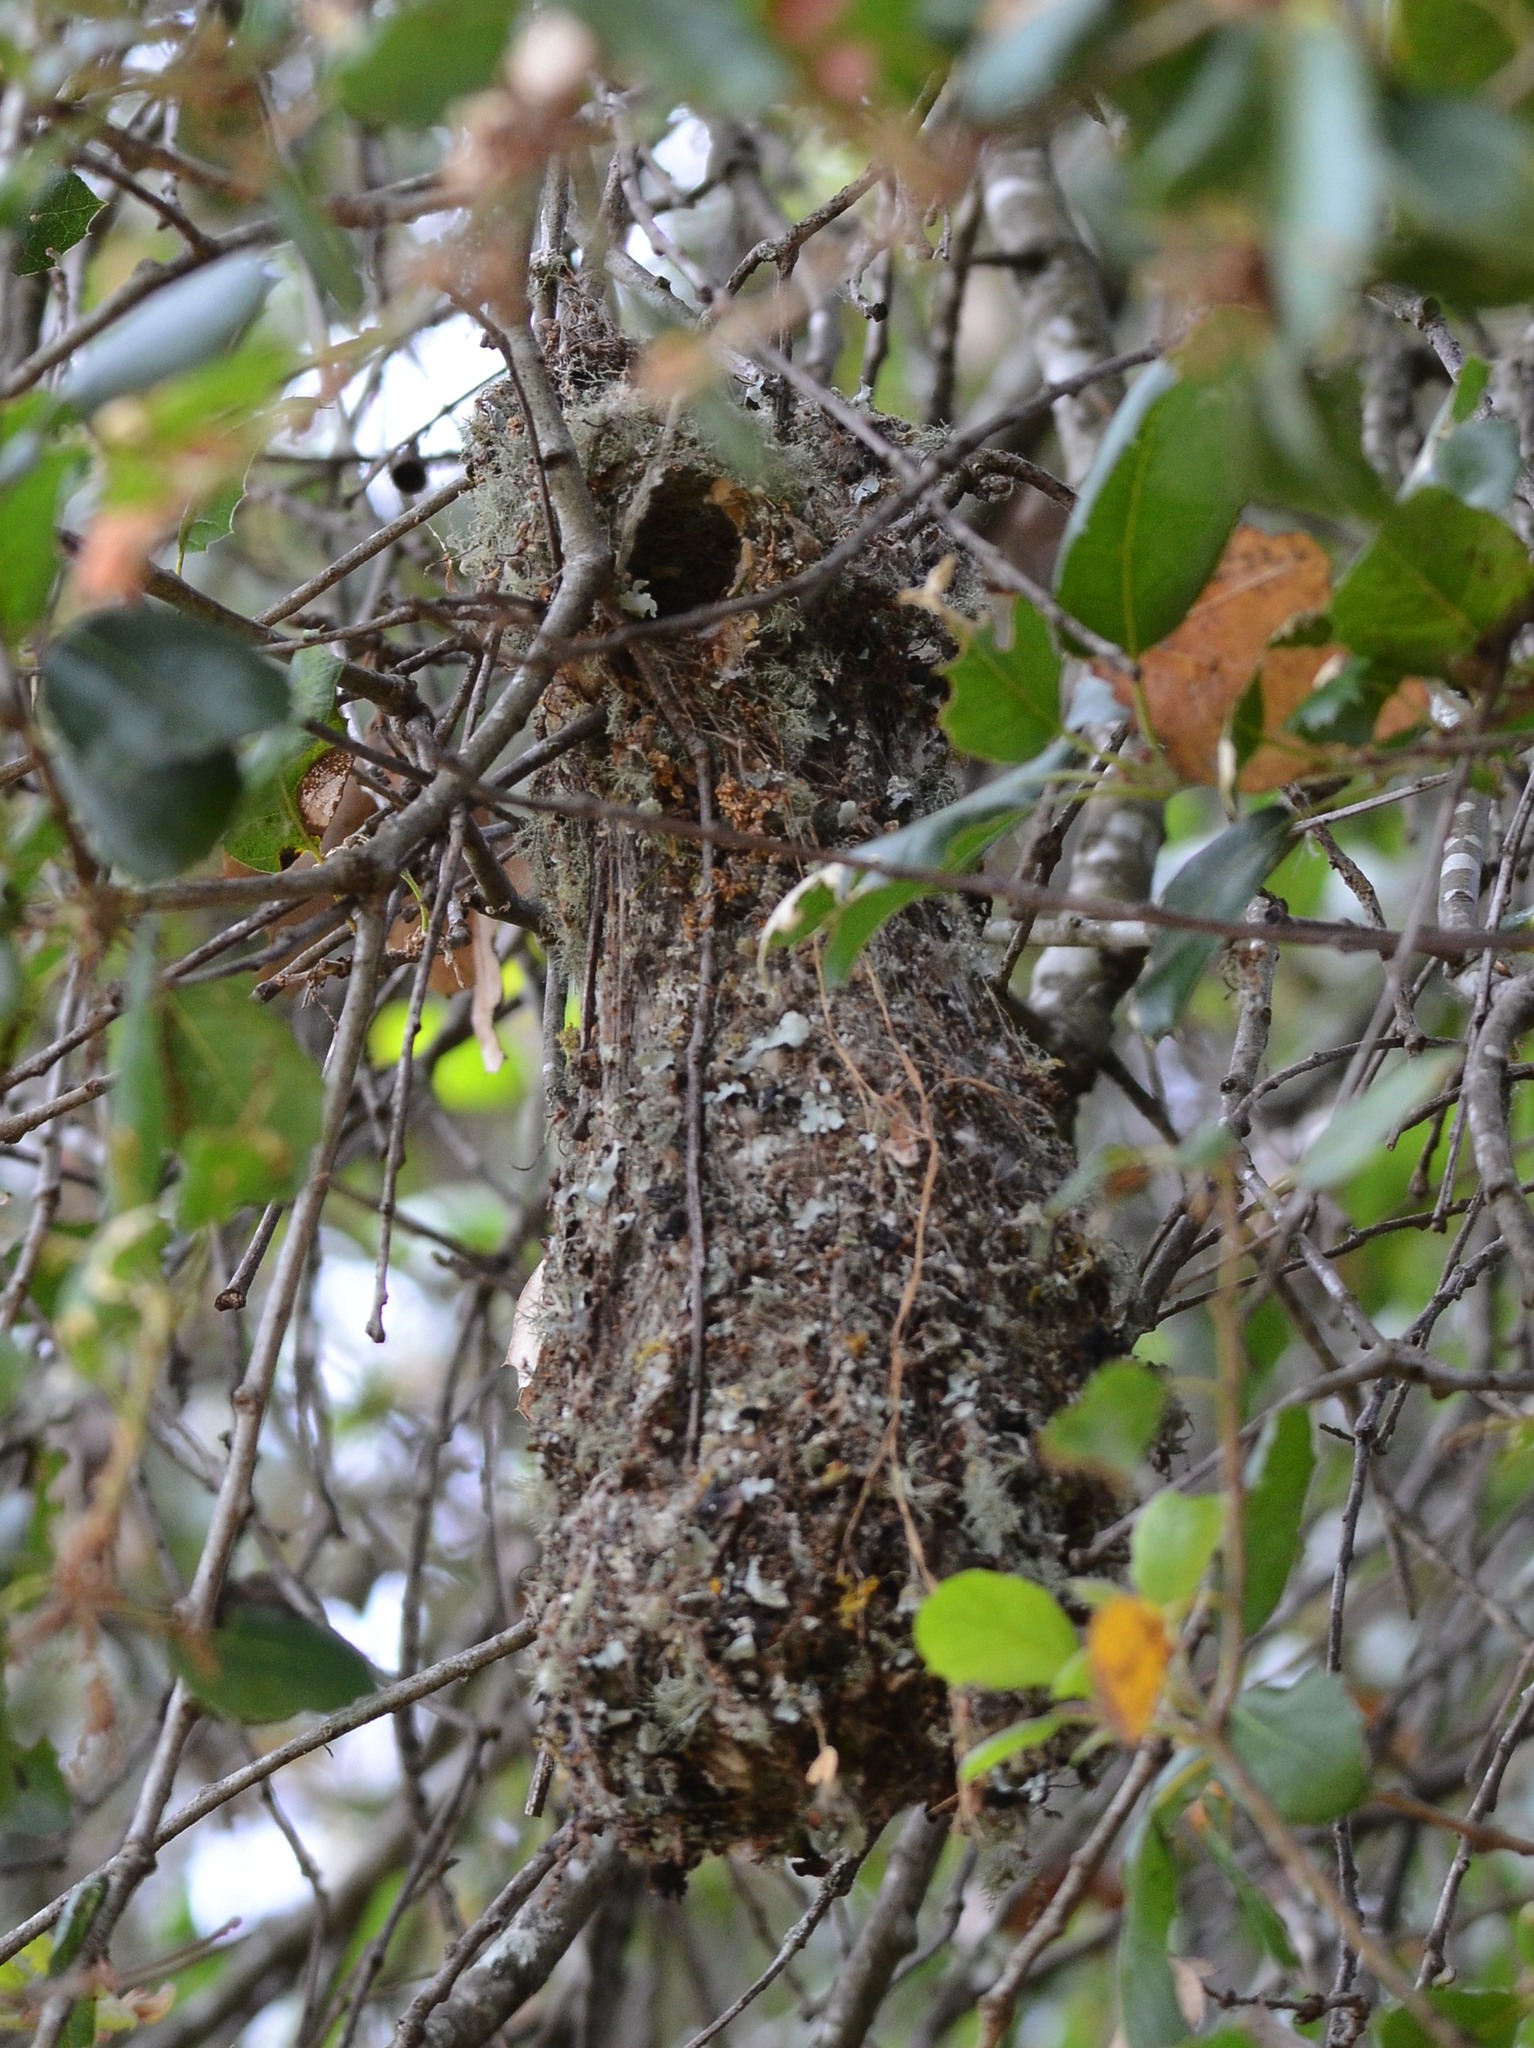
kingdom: Animalia
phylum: Chordata
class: Aves
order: Passeriformes
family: Aegithalidae
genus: Psaltriparus
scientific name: Psaltriparus minimus
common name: American bushtit
